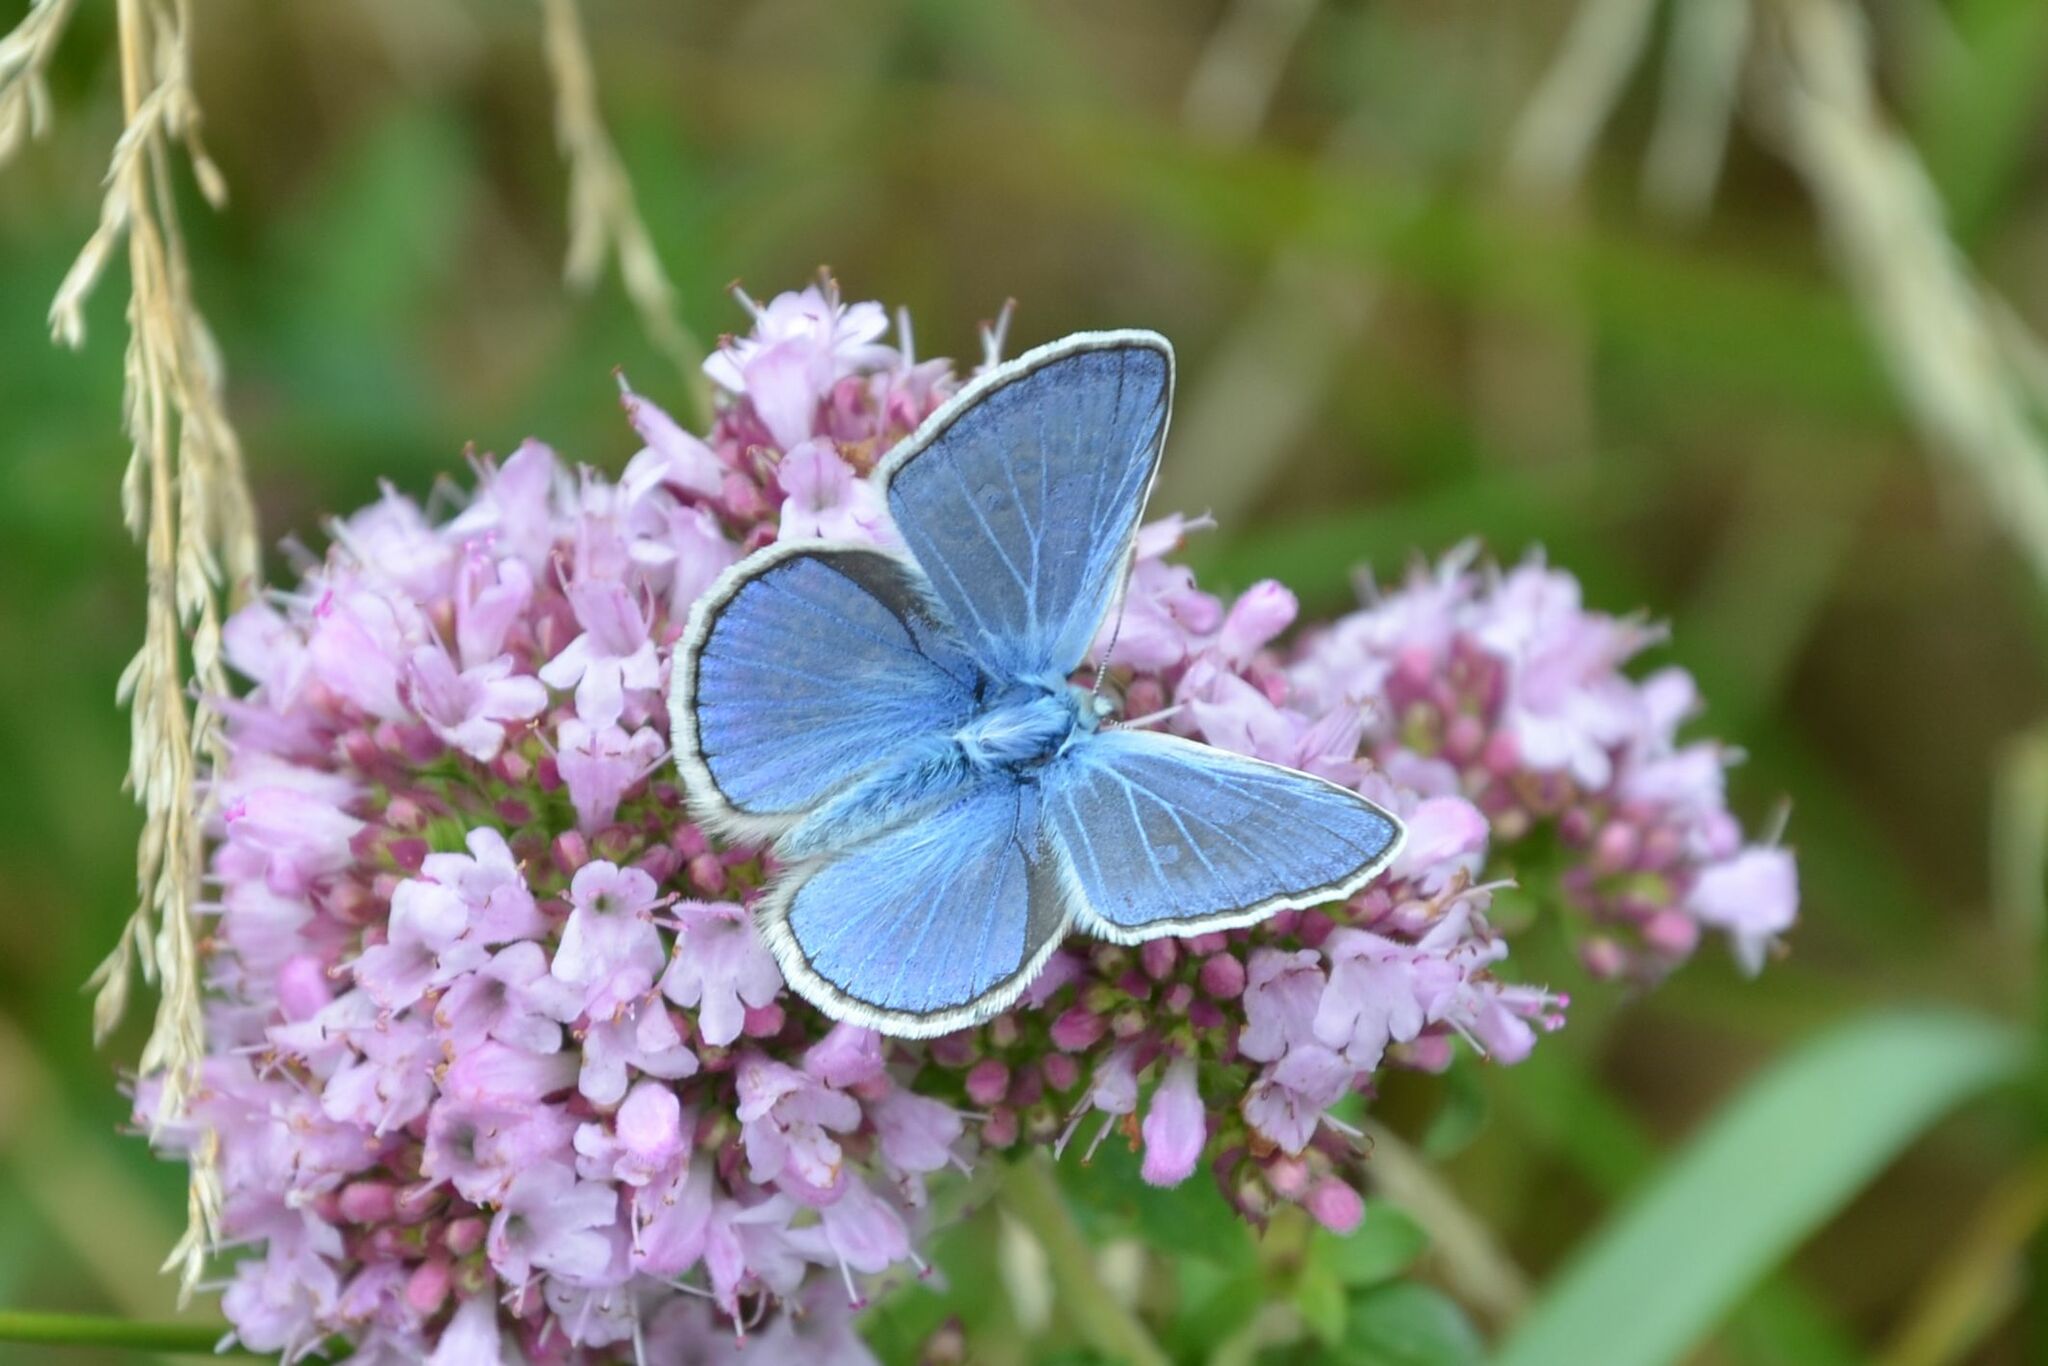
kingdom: Animalia
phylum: Arthropoda
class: Insecta
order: Lepidoptera
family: Lycaenidae
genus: Polyommatus
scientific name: Polyommatus icarus
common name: Common blue
